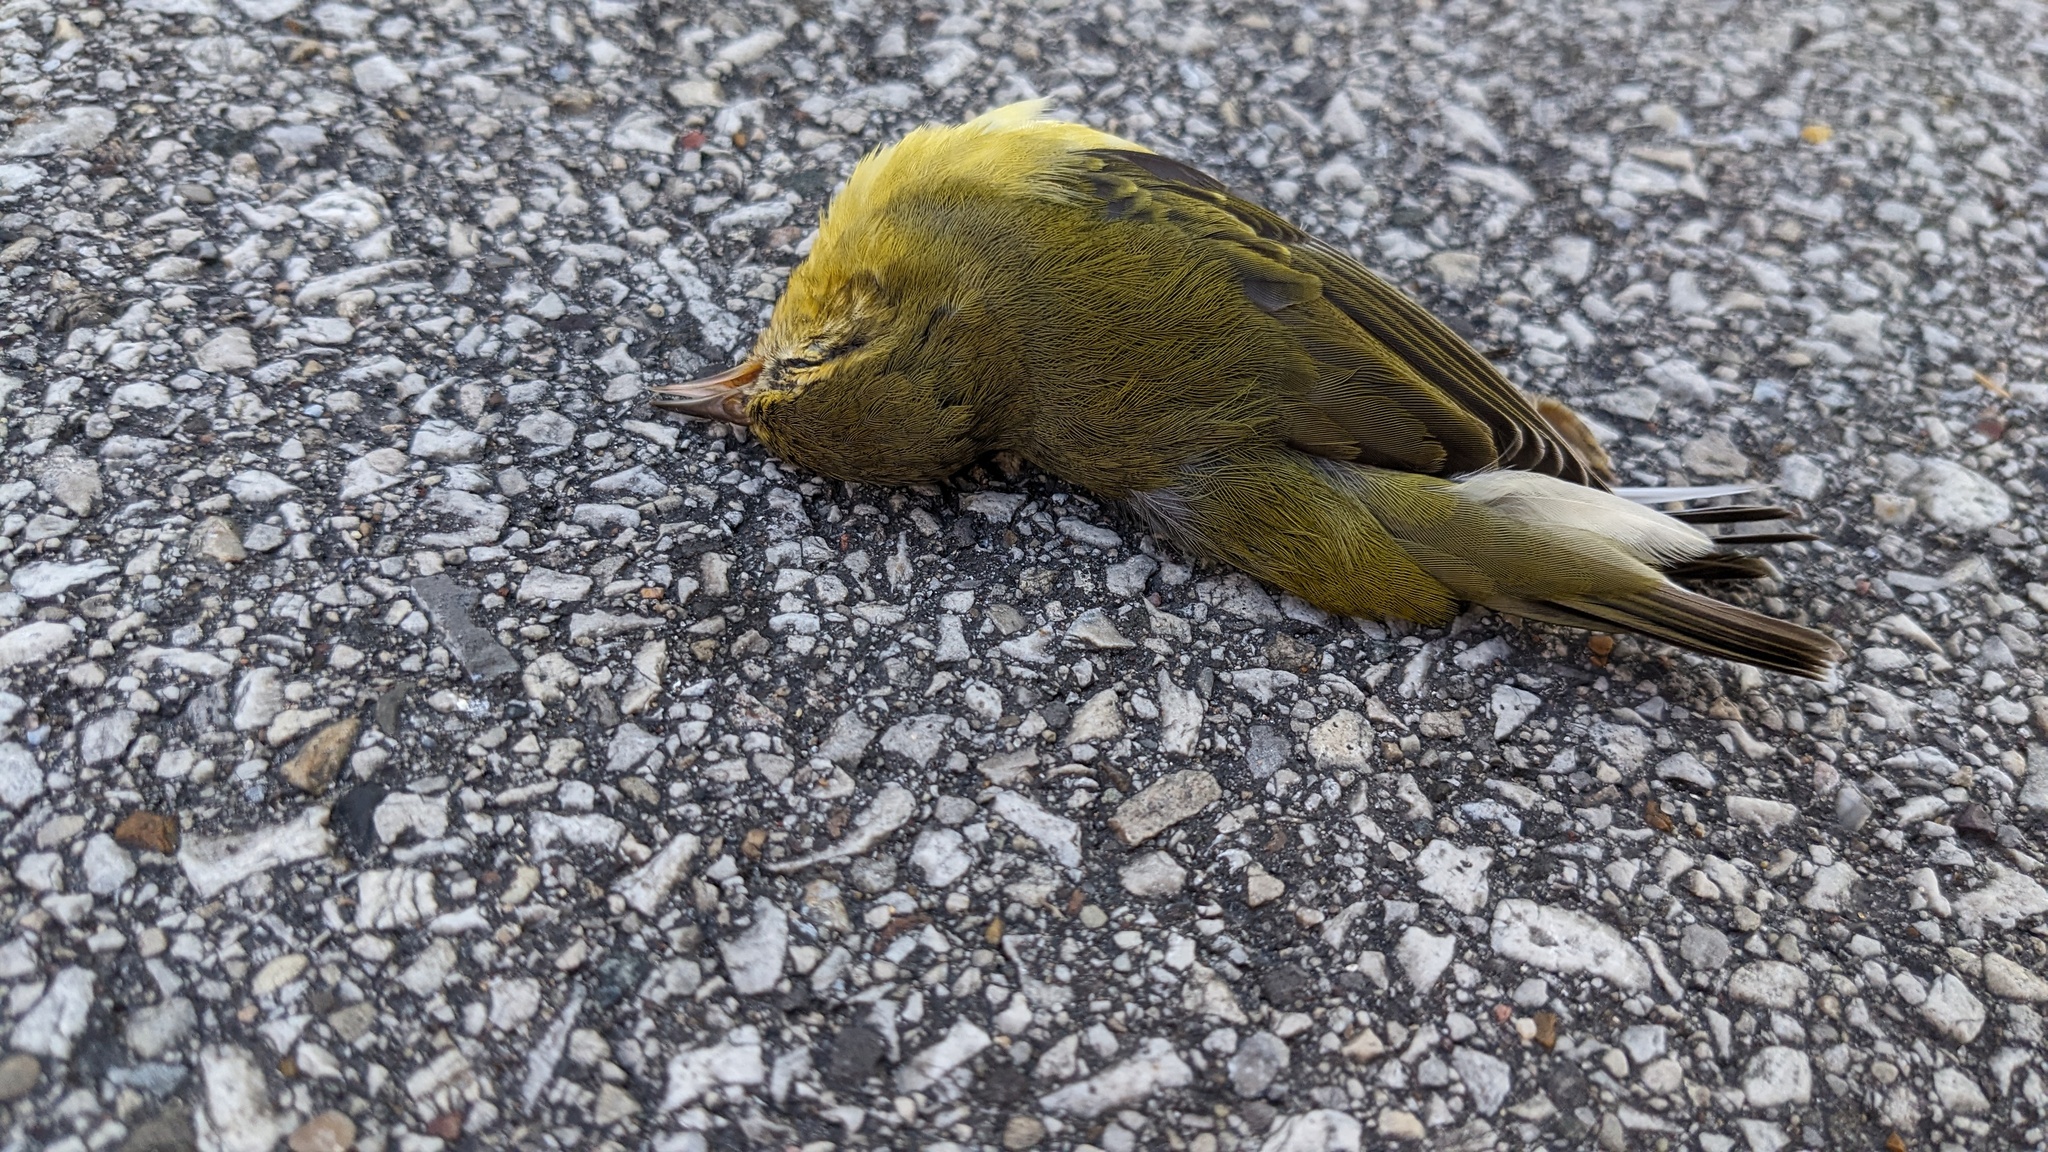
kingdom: Animalia
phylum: Chordata
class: Aves
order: Passeriformes
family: Parulidae
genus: Leiothlypis
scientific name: Leiothlypis peregrina
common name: Tennessee warbler
